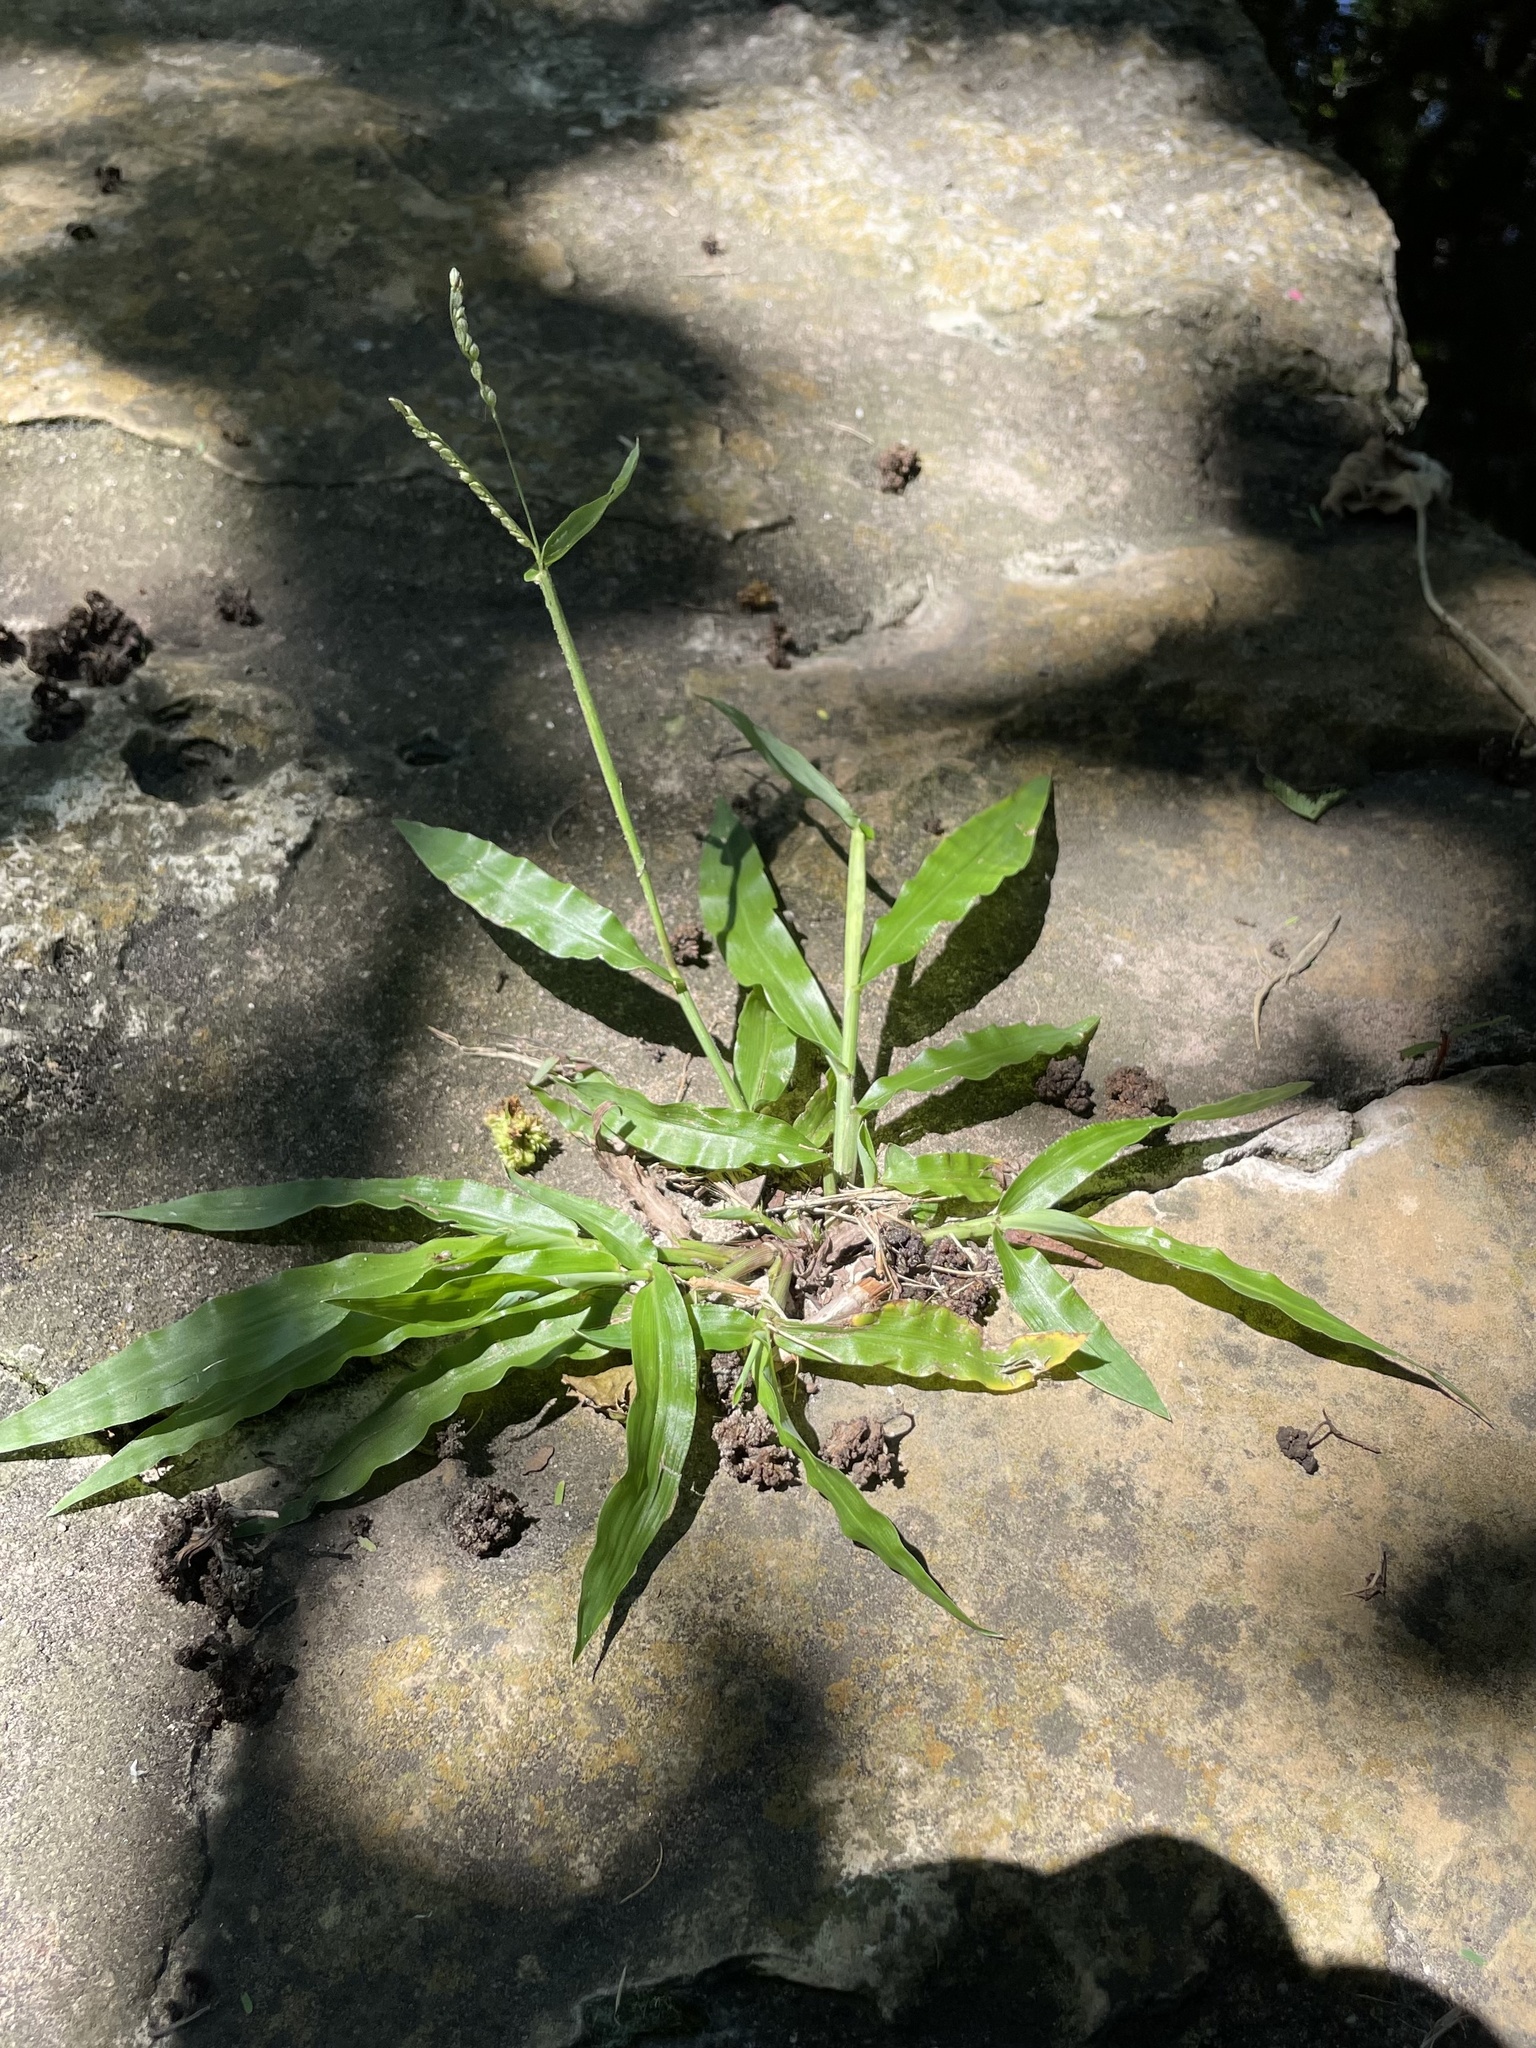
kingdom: Plantae
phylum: Tracheophyta
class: Liliopsida
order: Poales
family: Poaceae
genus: Paspalum
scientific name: Paspalum langei
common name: Rusty-seed paspalum
